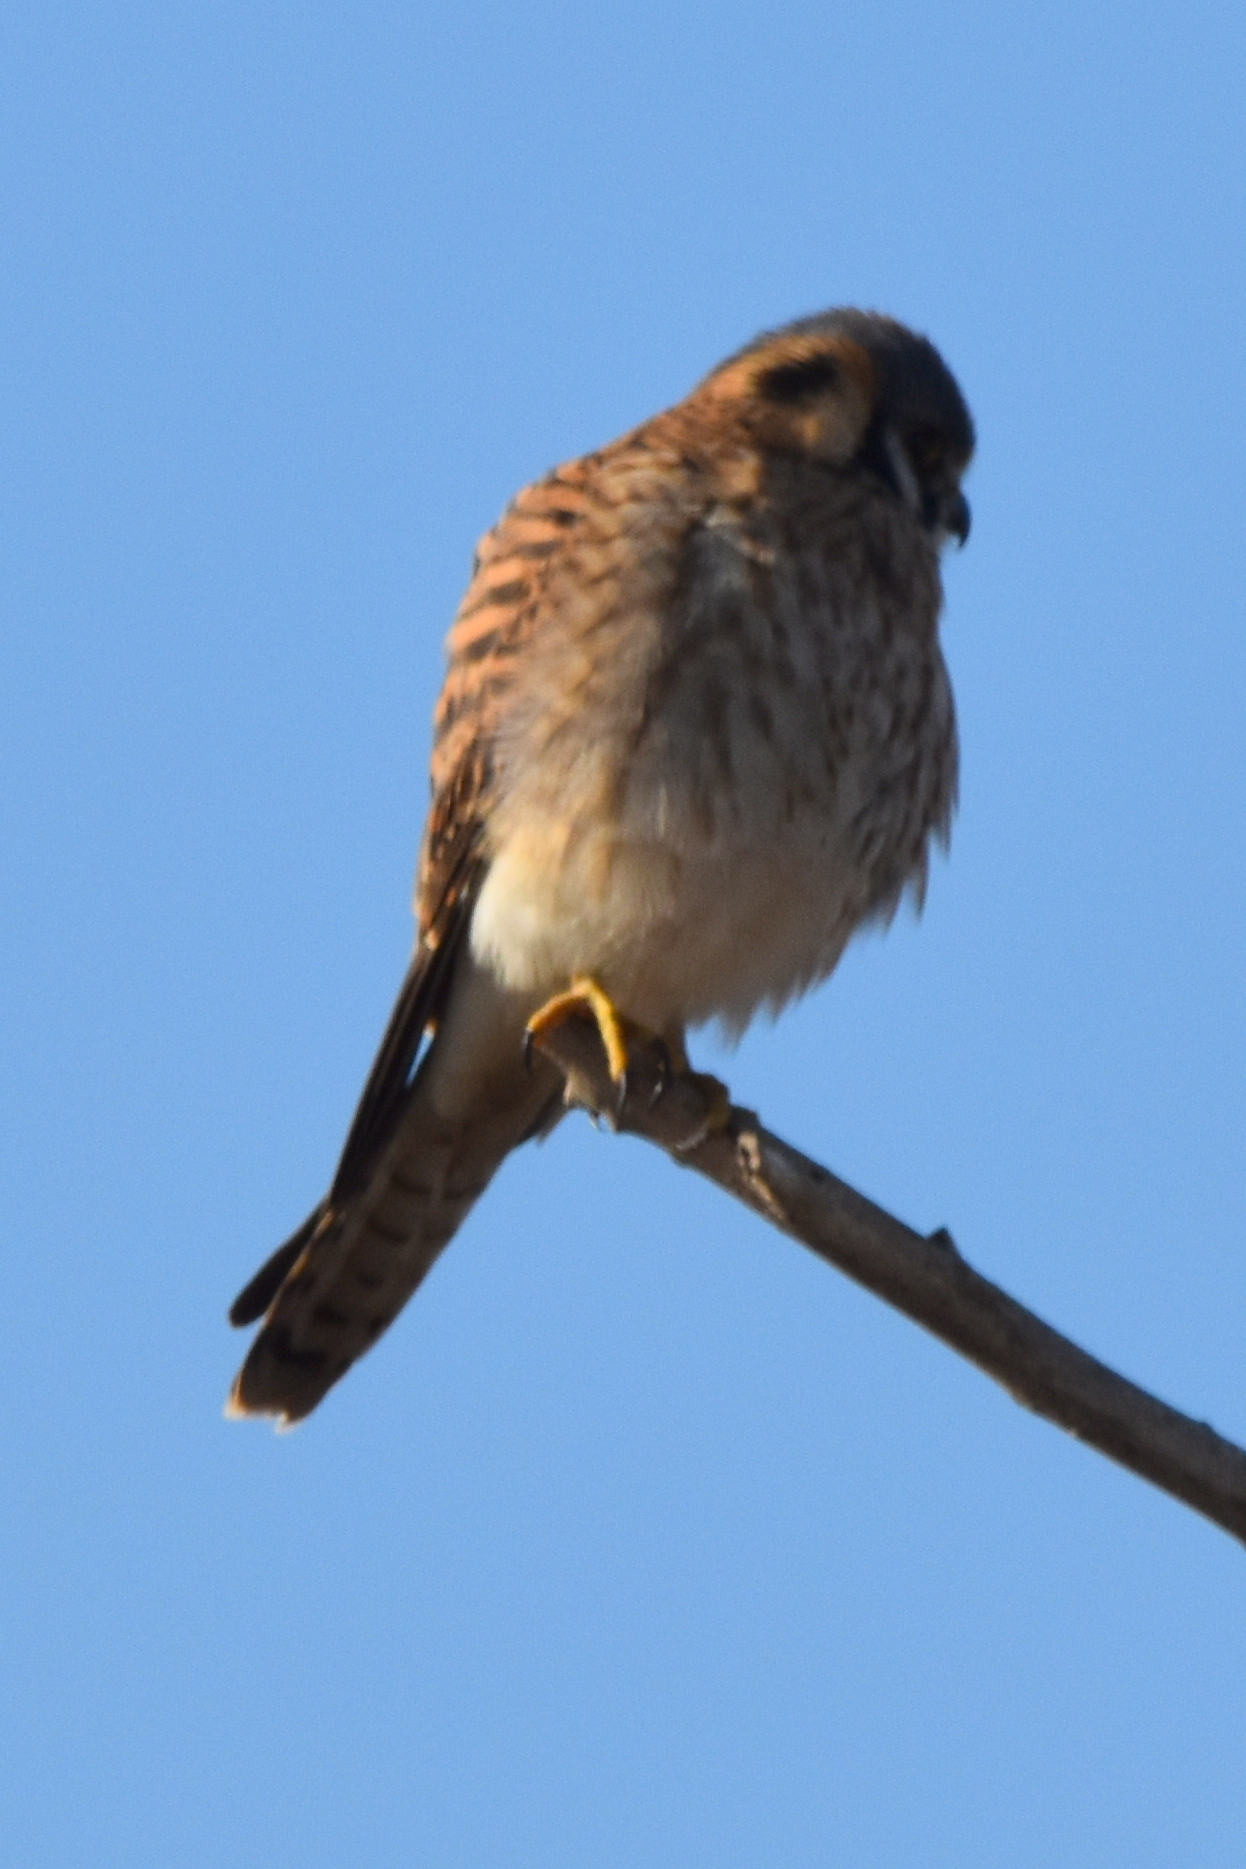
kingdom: Animalia
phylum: Chordata
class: Aves
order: Falconiformes
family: Falconidae
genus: Falco
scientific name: Falco sparverius
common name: American kestrel
